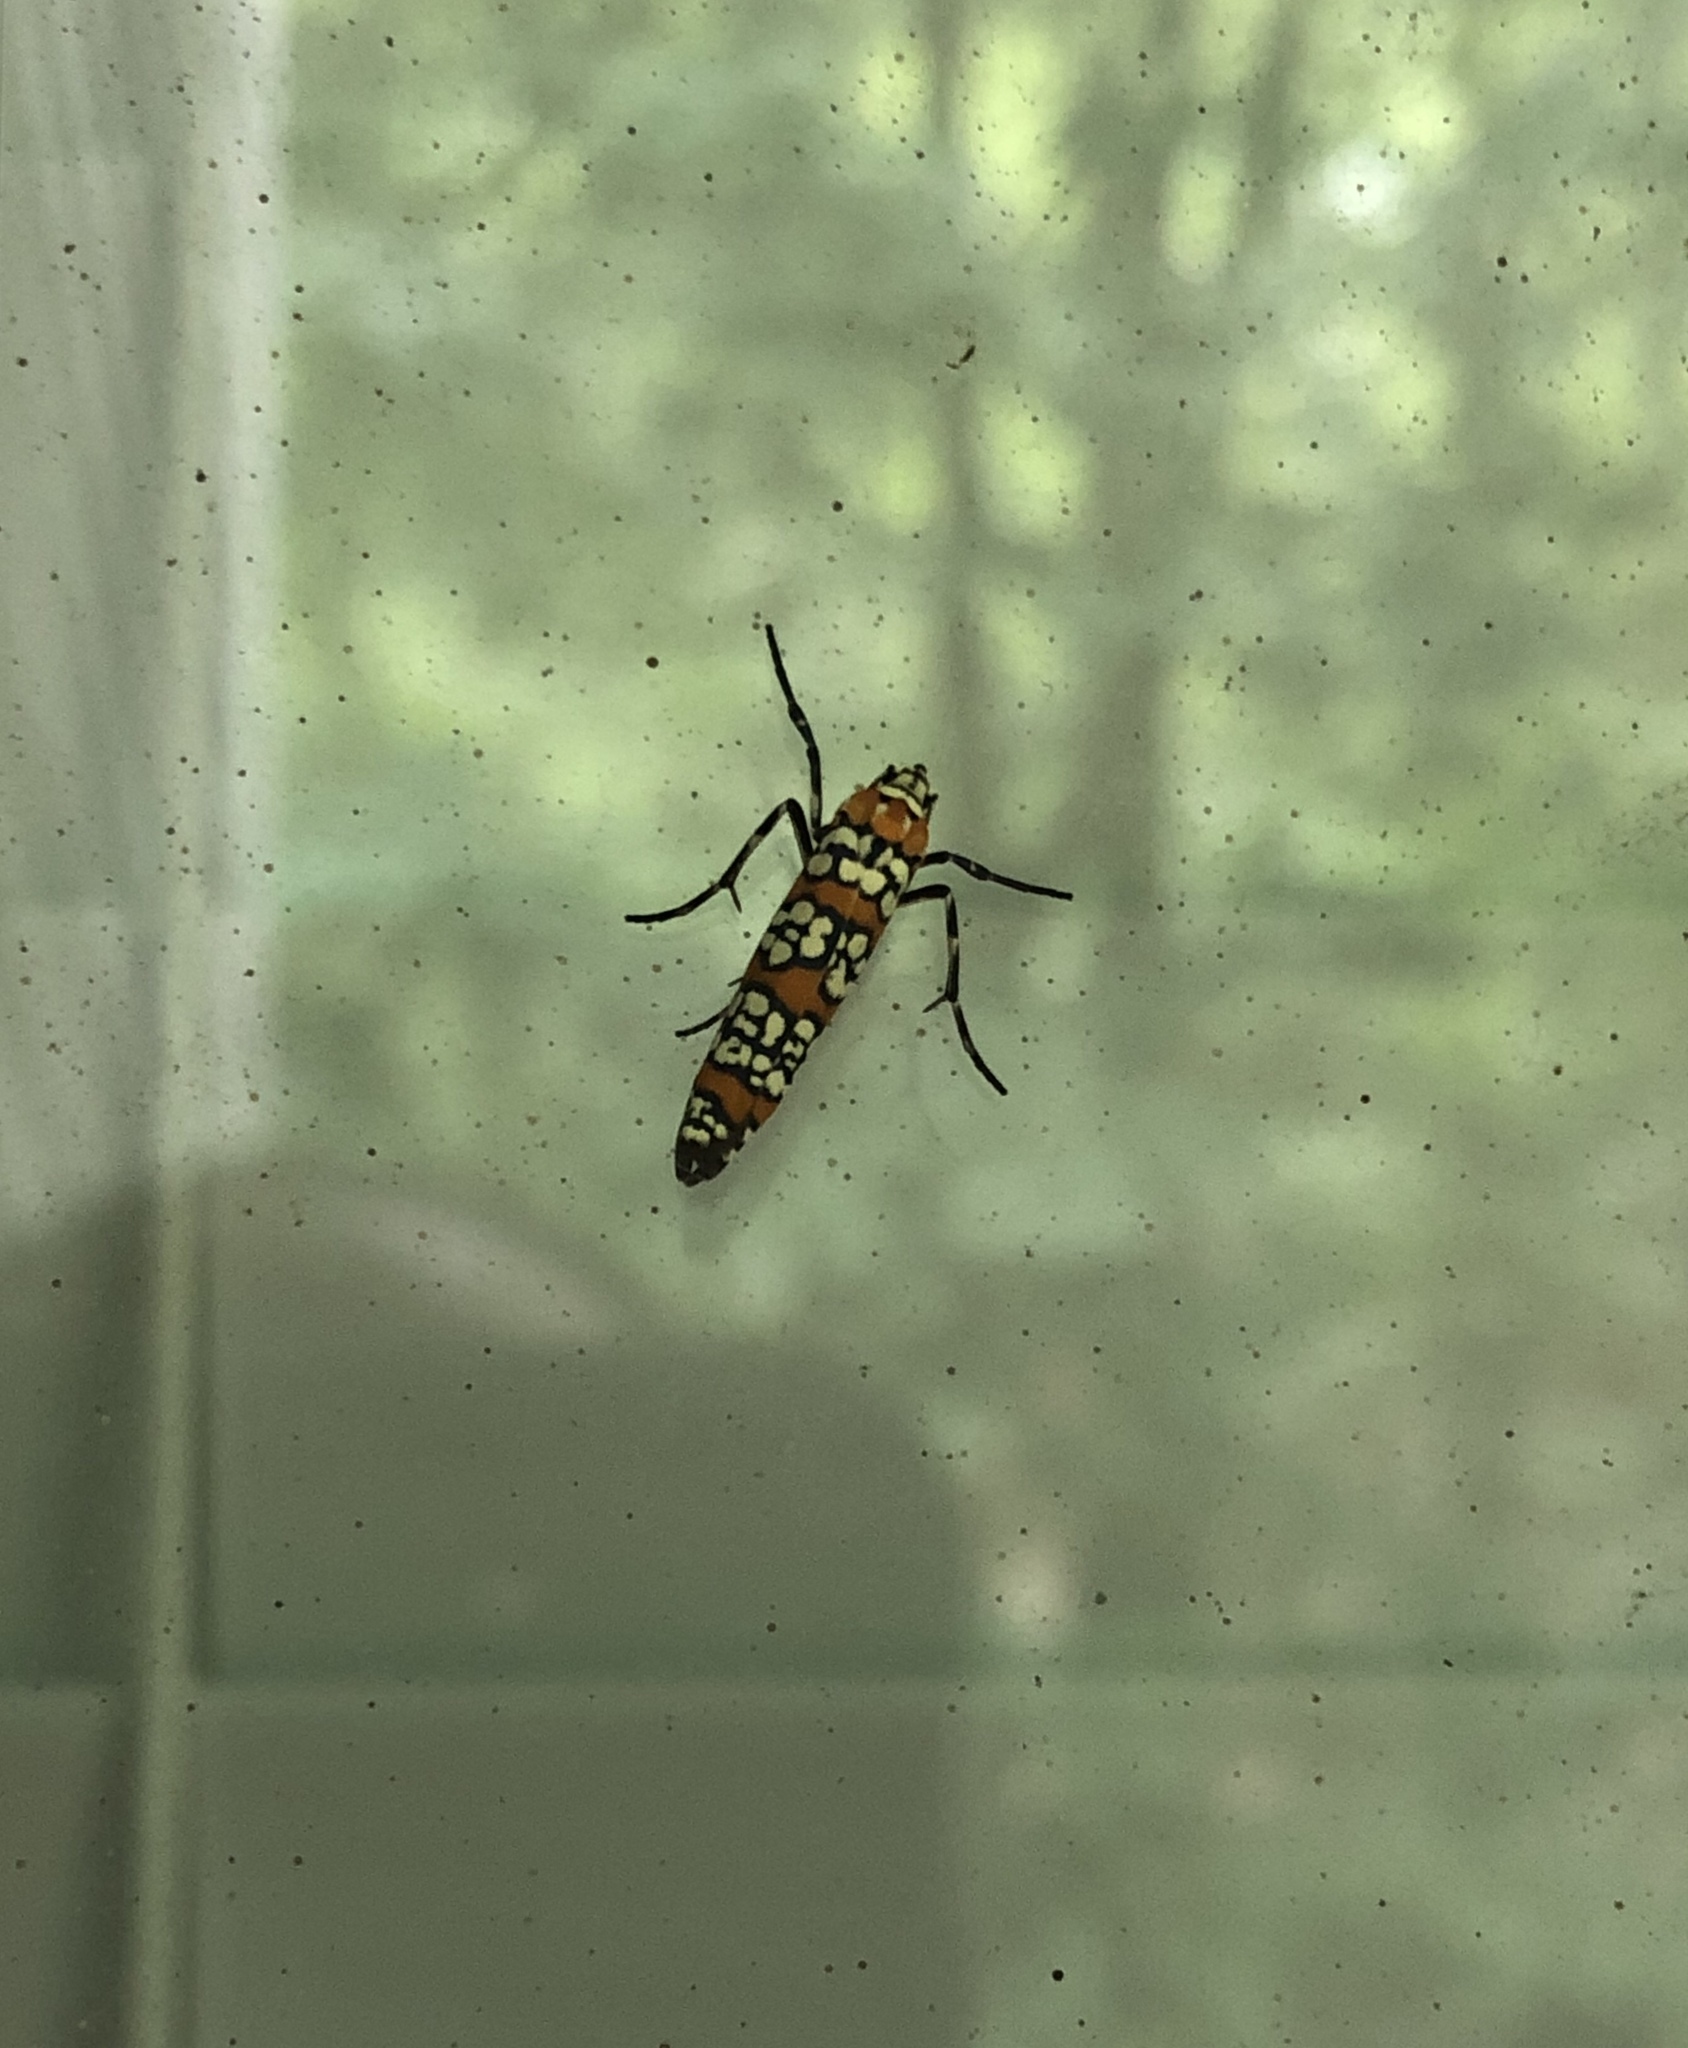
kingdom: Animalia
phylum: Arthropoda
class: Insecta
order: Lepidoptera
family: Attevidae
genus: Atteva
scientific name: Atteva punctella
